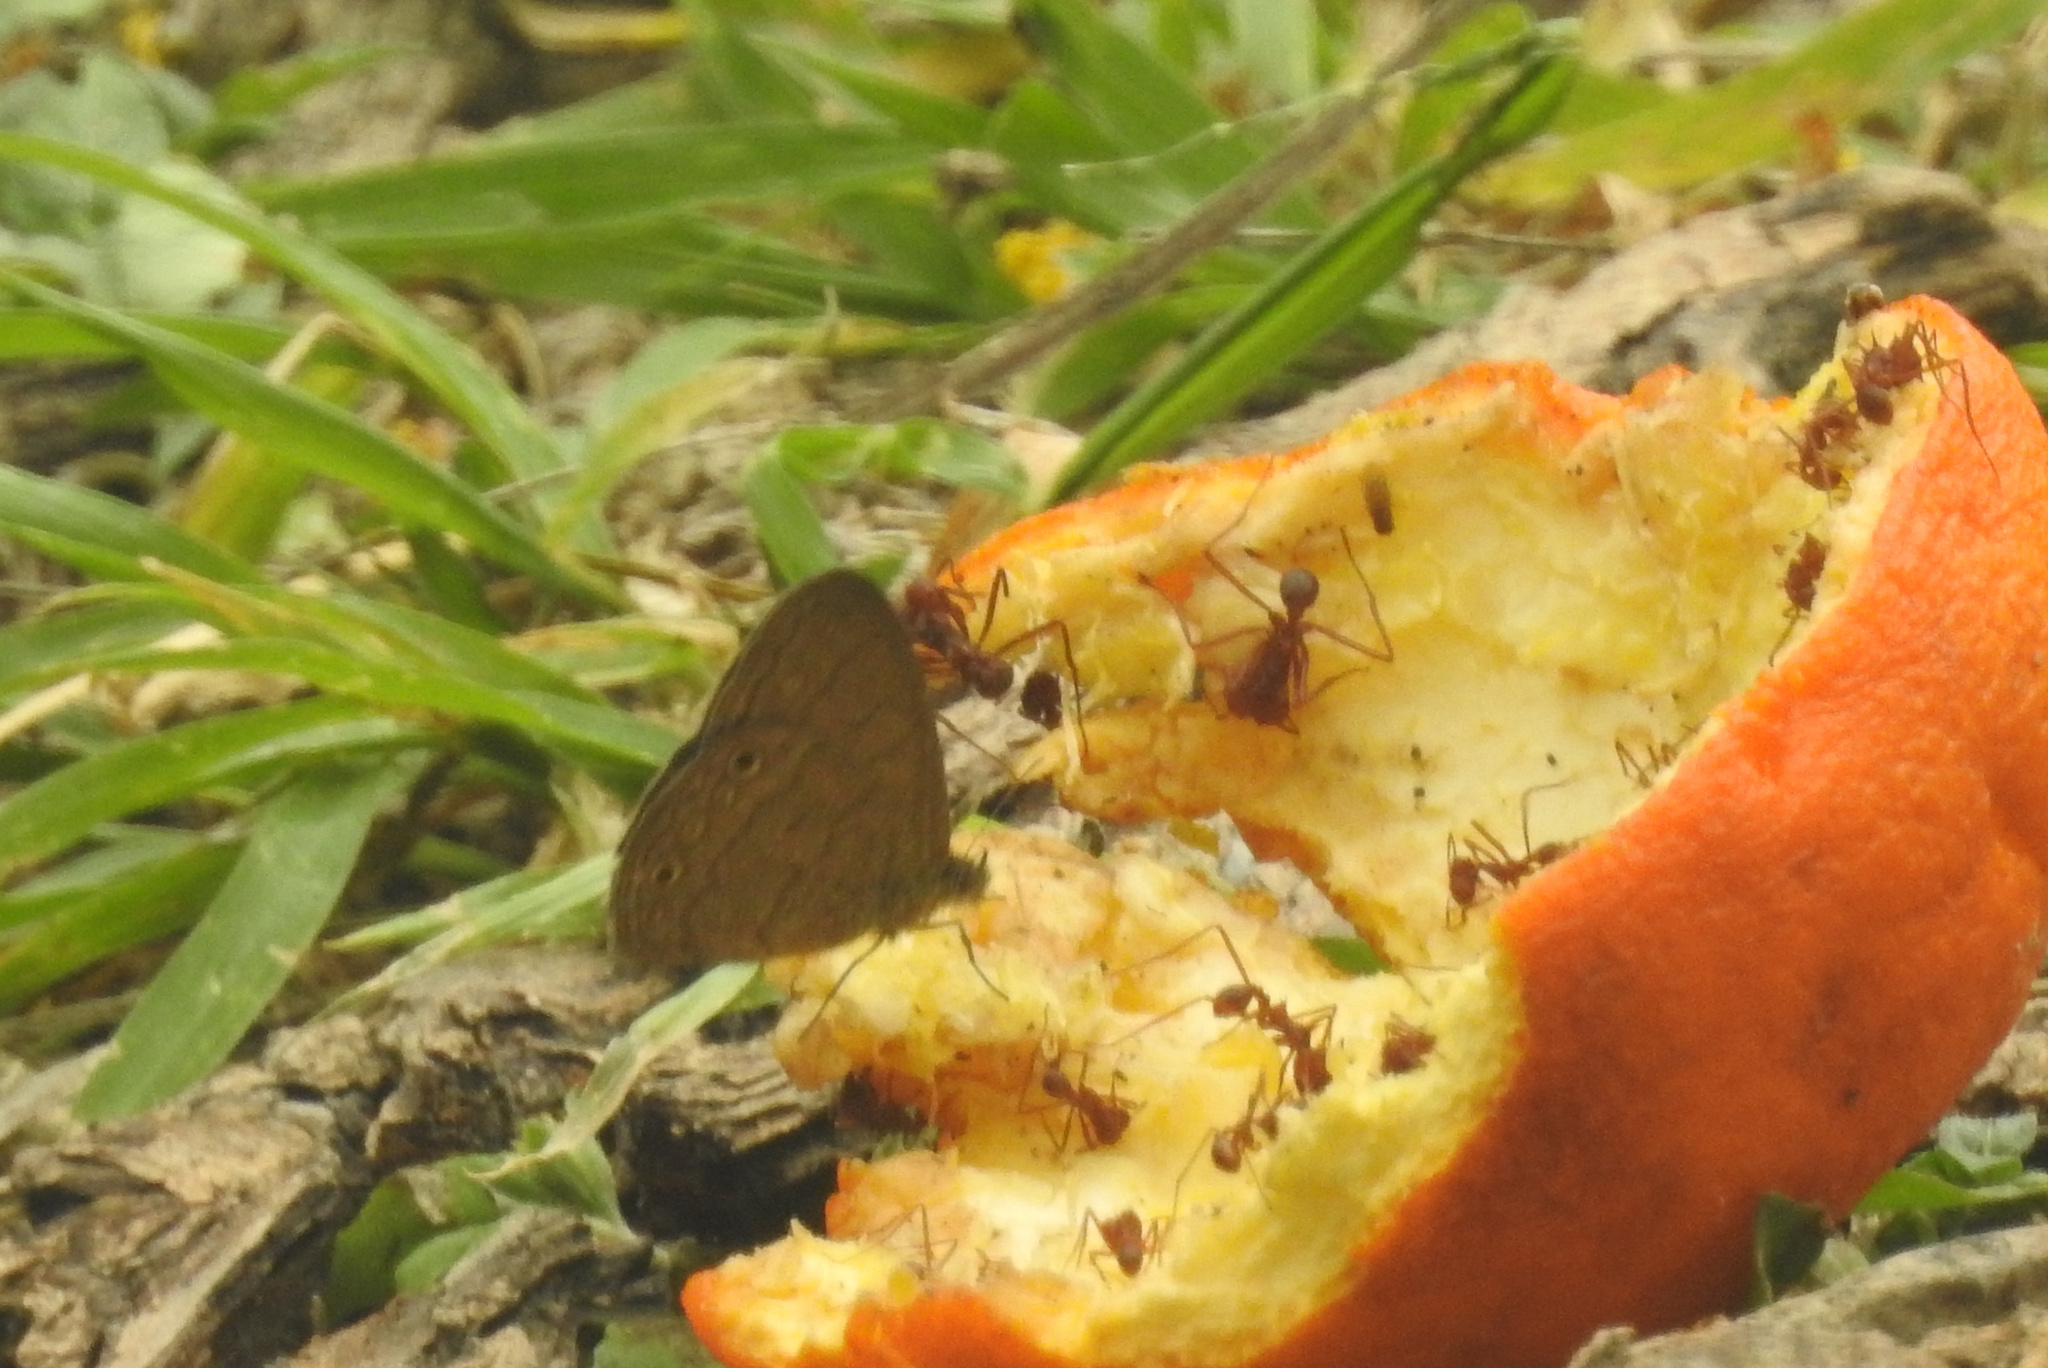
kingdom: Animalia
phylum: Arthropoda
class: Insecta
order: Hymenoptera
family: Formicidae
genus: Atta
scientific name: Atta texana
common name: Texas leafcutting ant
